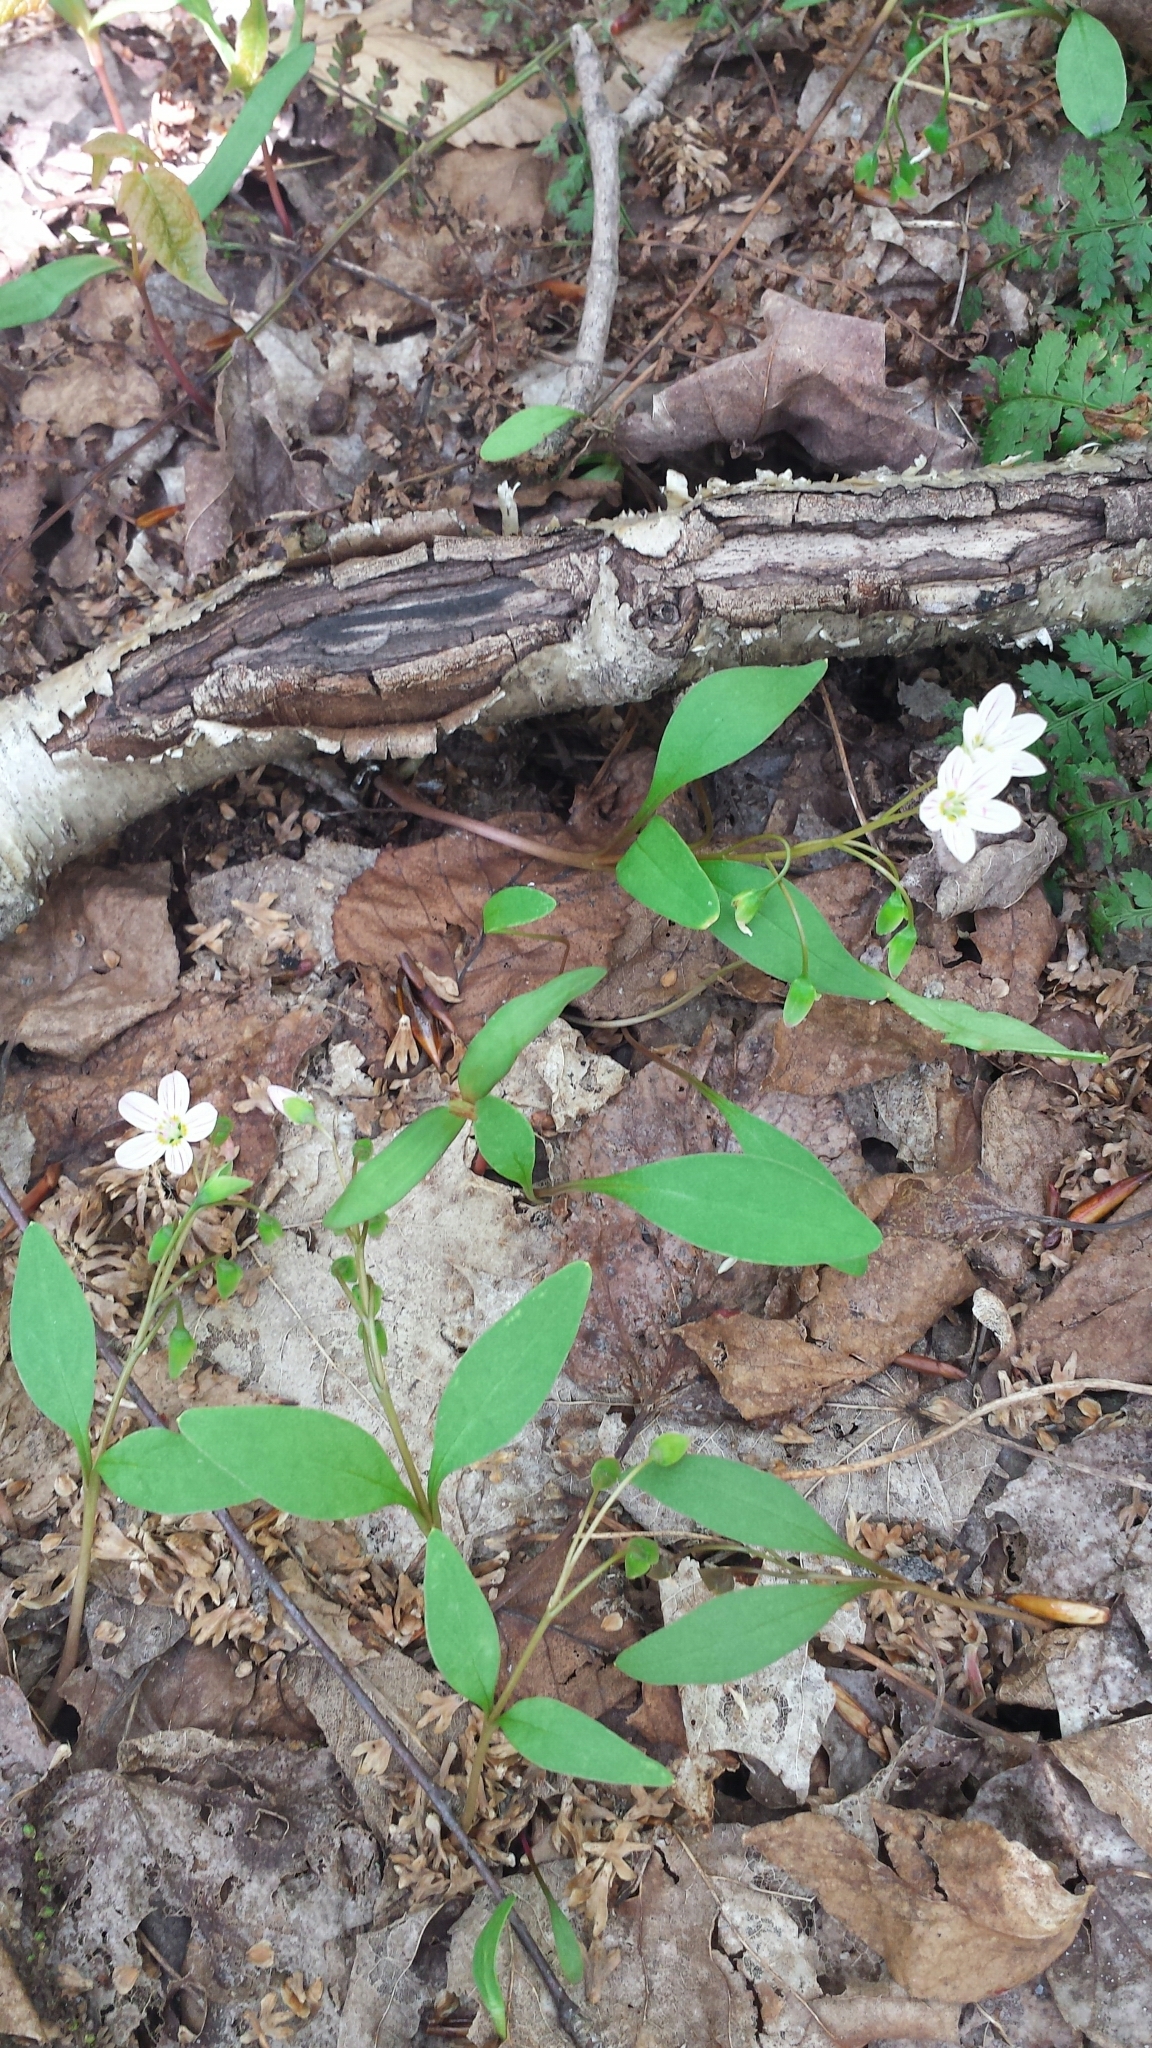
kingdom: Plantae
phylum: Tracheophyta
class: Magnoliopsida
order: Caryophyllales
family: Montiaceae
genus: Claytonia
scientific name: Claytonia caroliniana
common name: Carolina spring beauty
